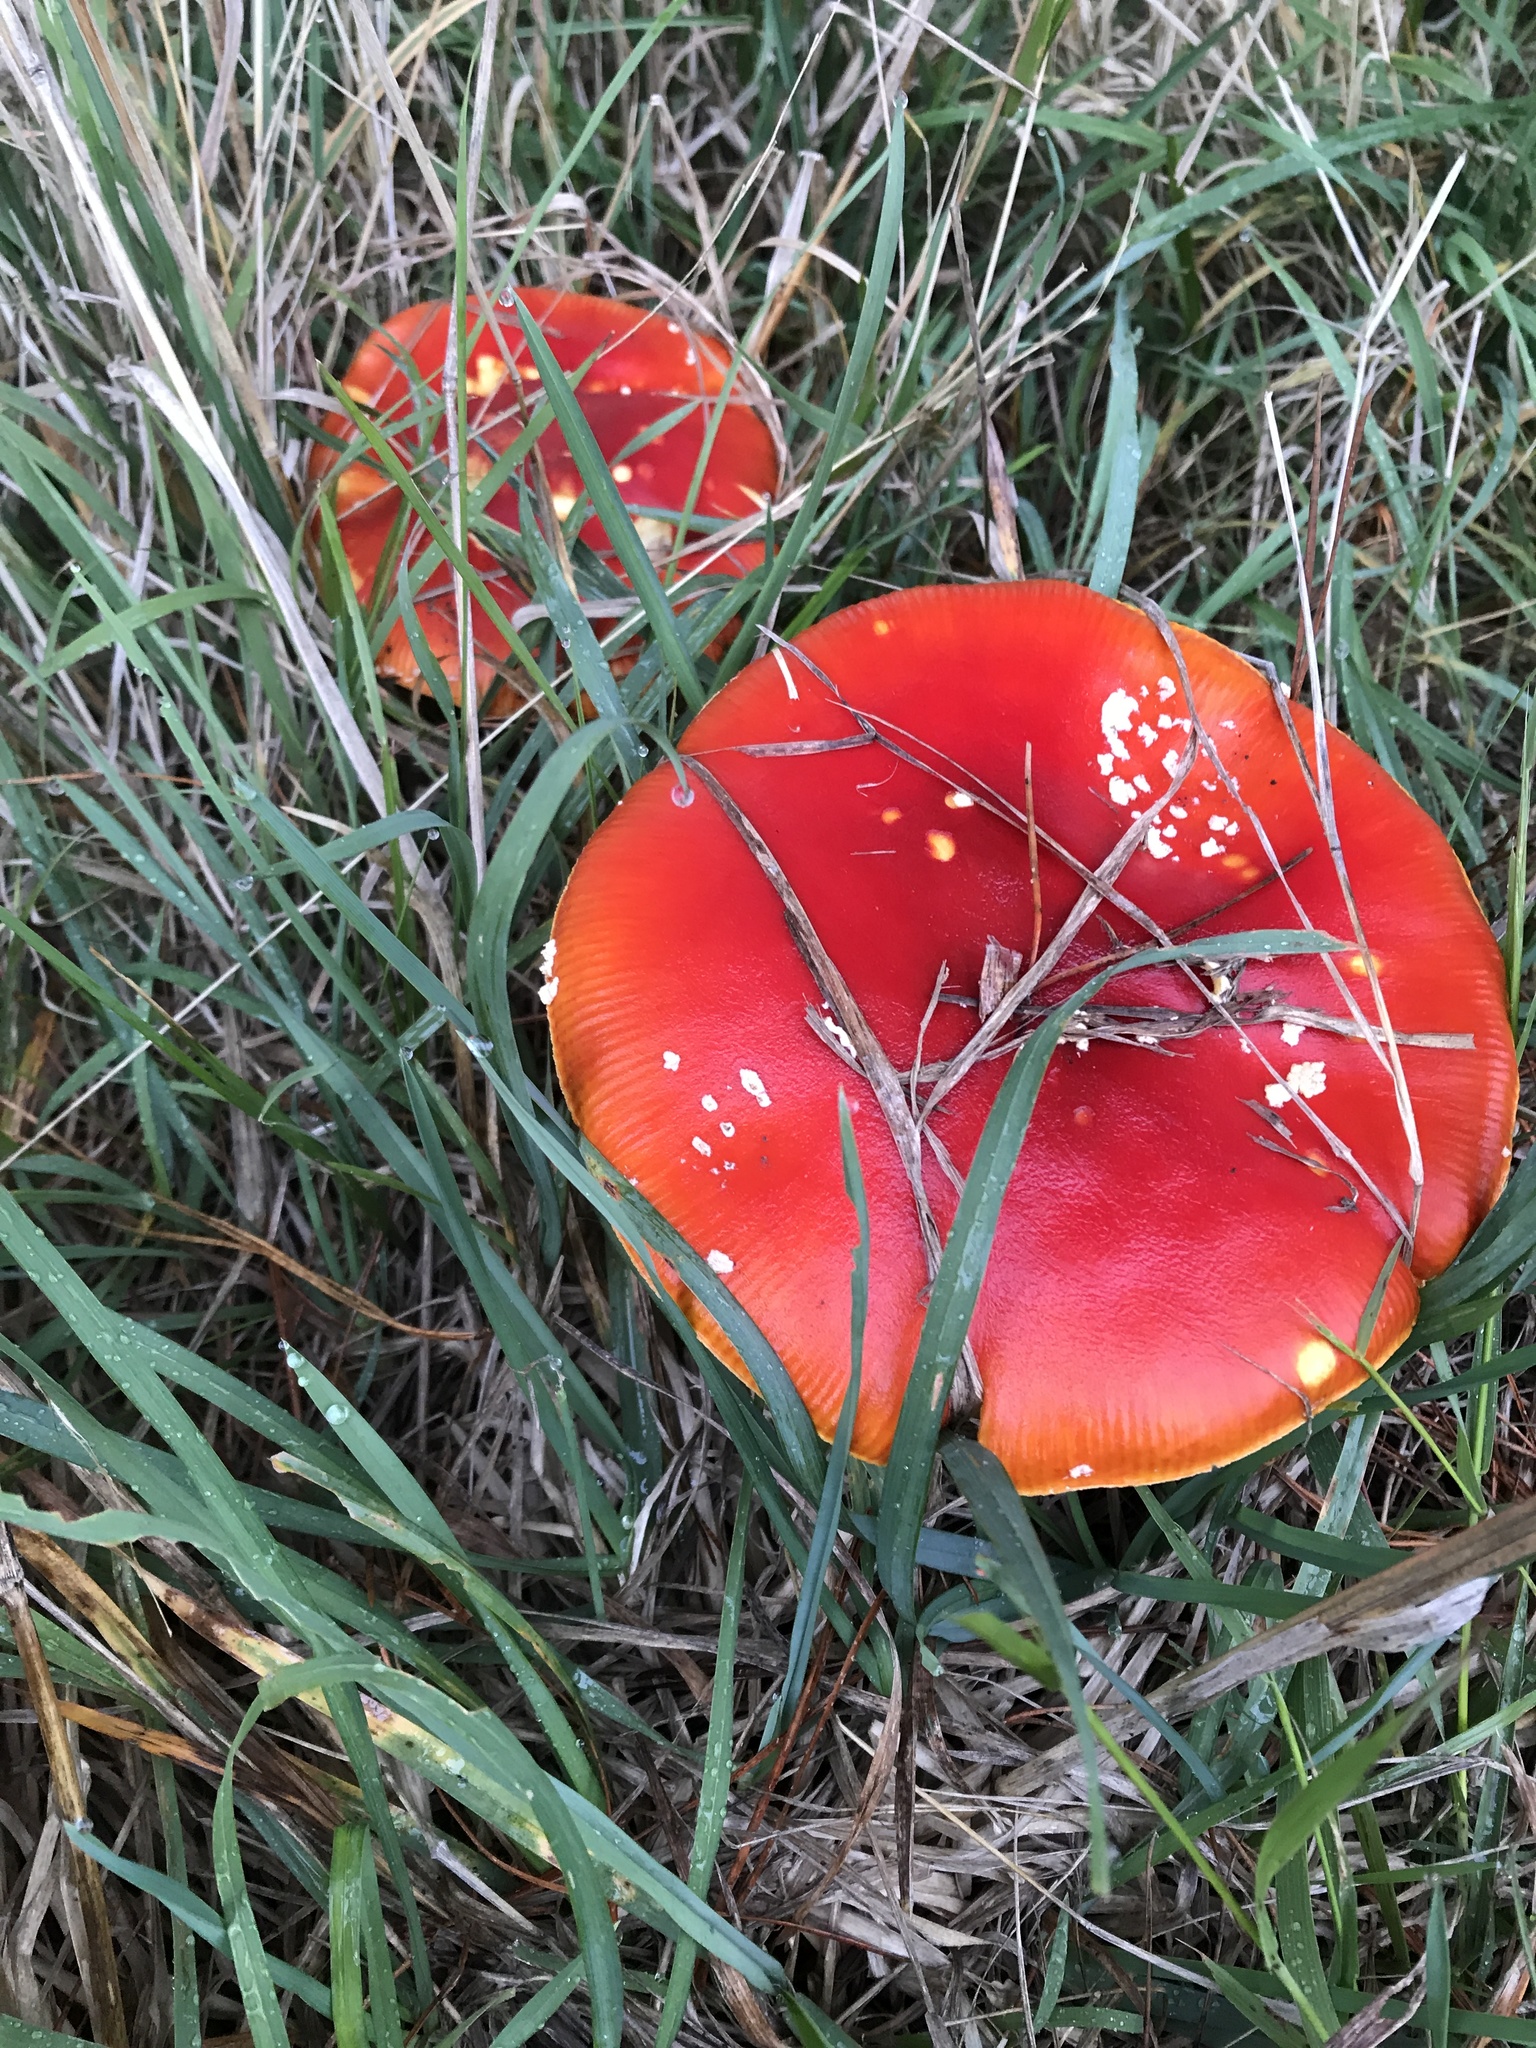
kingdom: Fungi
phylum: Basidiomycota
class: Agaricomycetes
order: Agaricales
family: Amanitaceae
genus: Amanita
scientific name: Amanita muscaria
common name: Fly agaric
